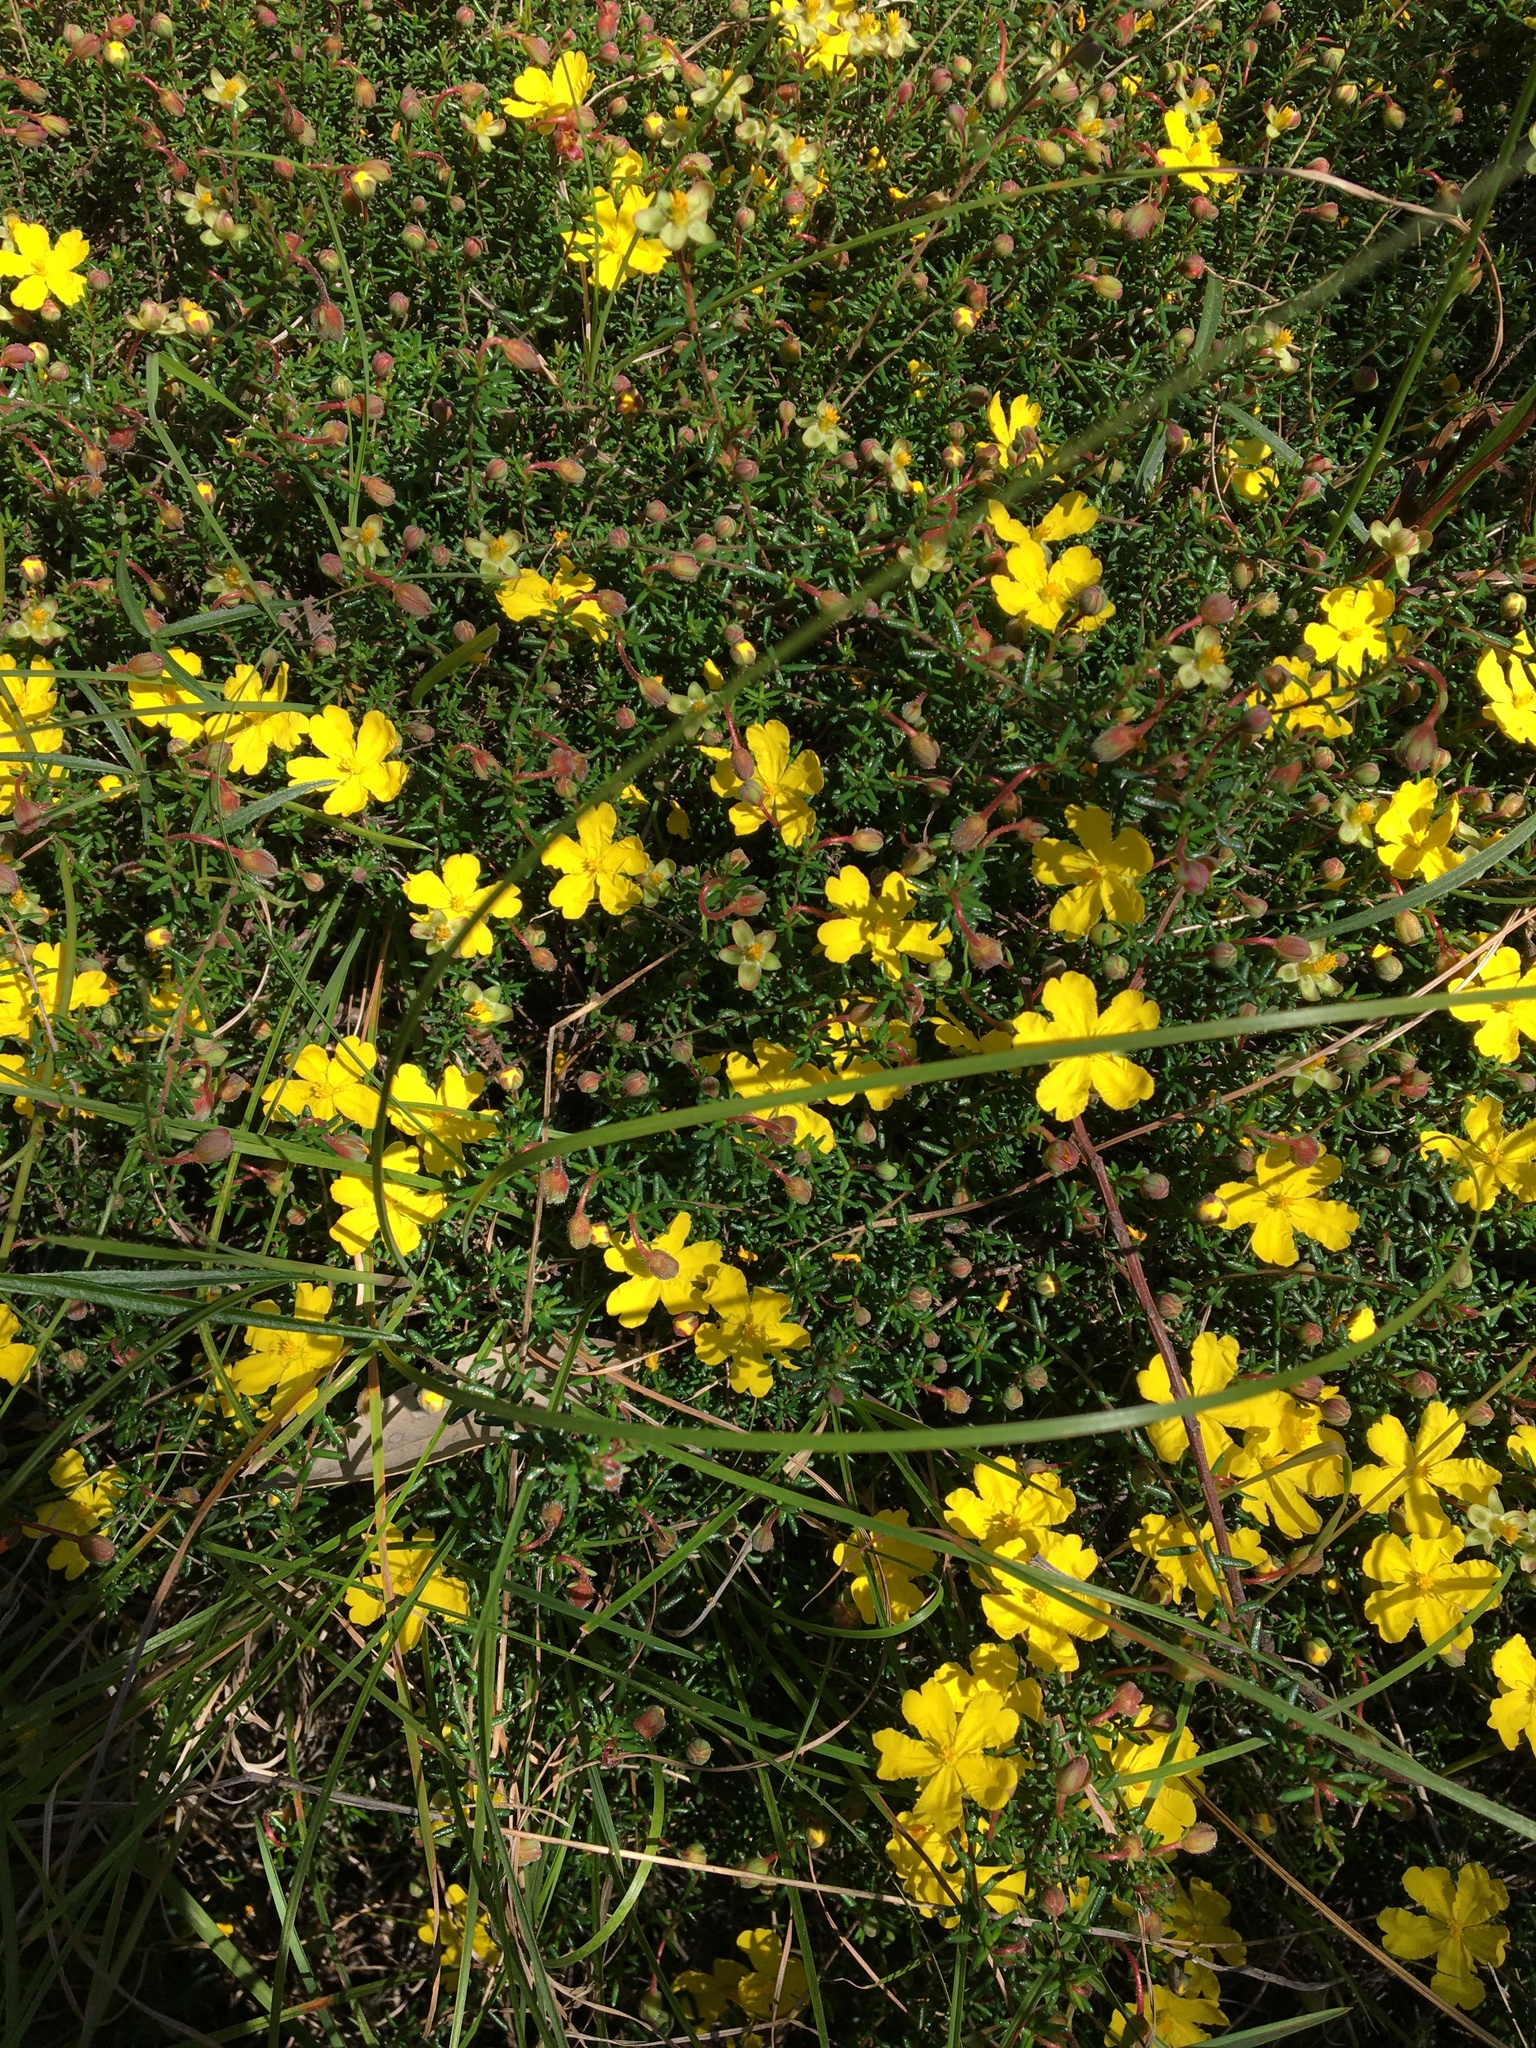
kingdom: Plantae
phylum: Tracheophyta
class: Magnoliopsida
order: Dilleniales
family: Dilleniaceae
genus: Hibbertia
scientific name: Hibbertia pedunculata
